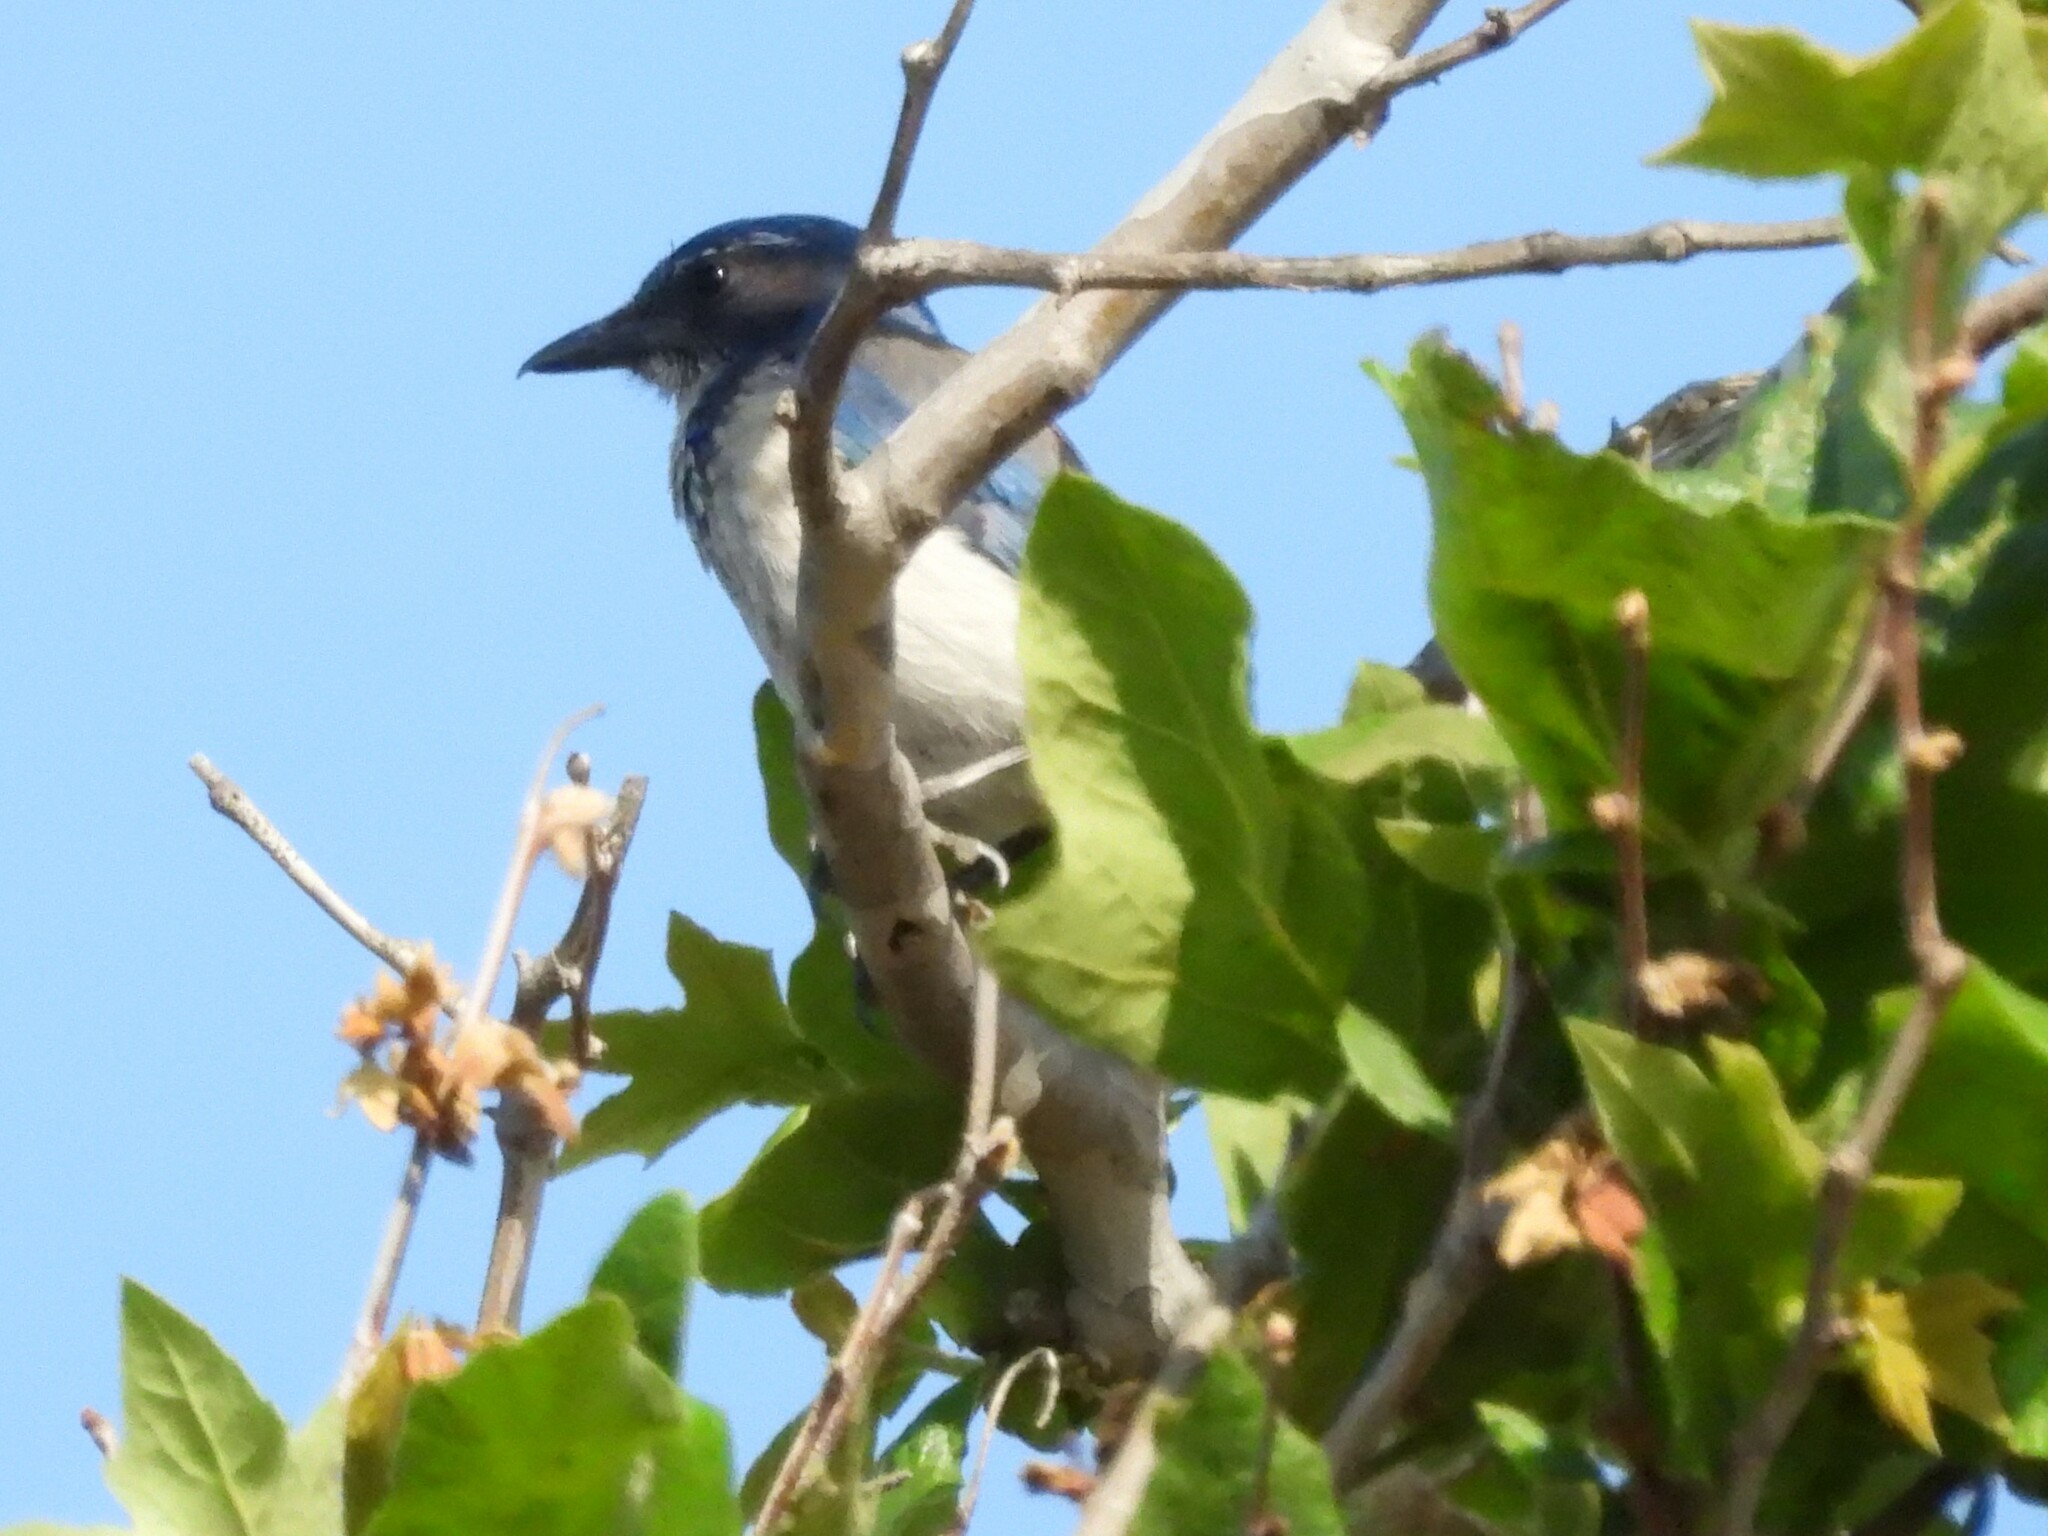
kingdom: Animalia
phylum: Chordata
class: Aves
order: Passeriformes
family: Corvidae
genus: Aphelocoma
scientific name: Aphelocoma californica
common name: California scrub-jay
